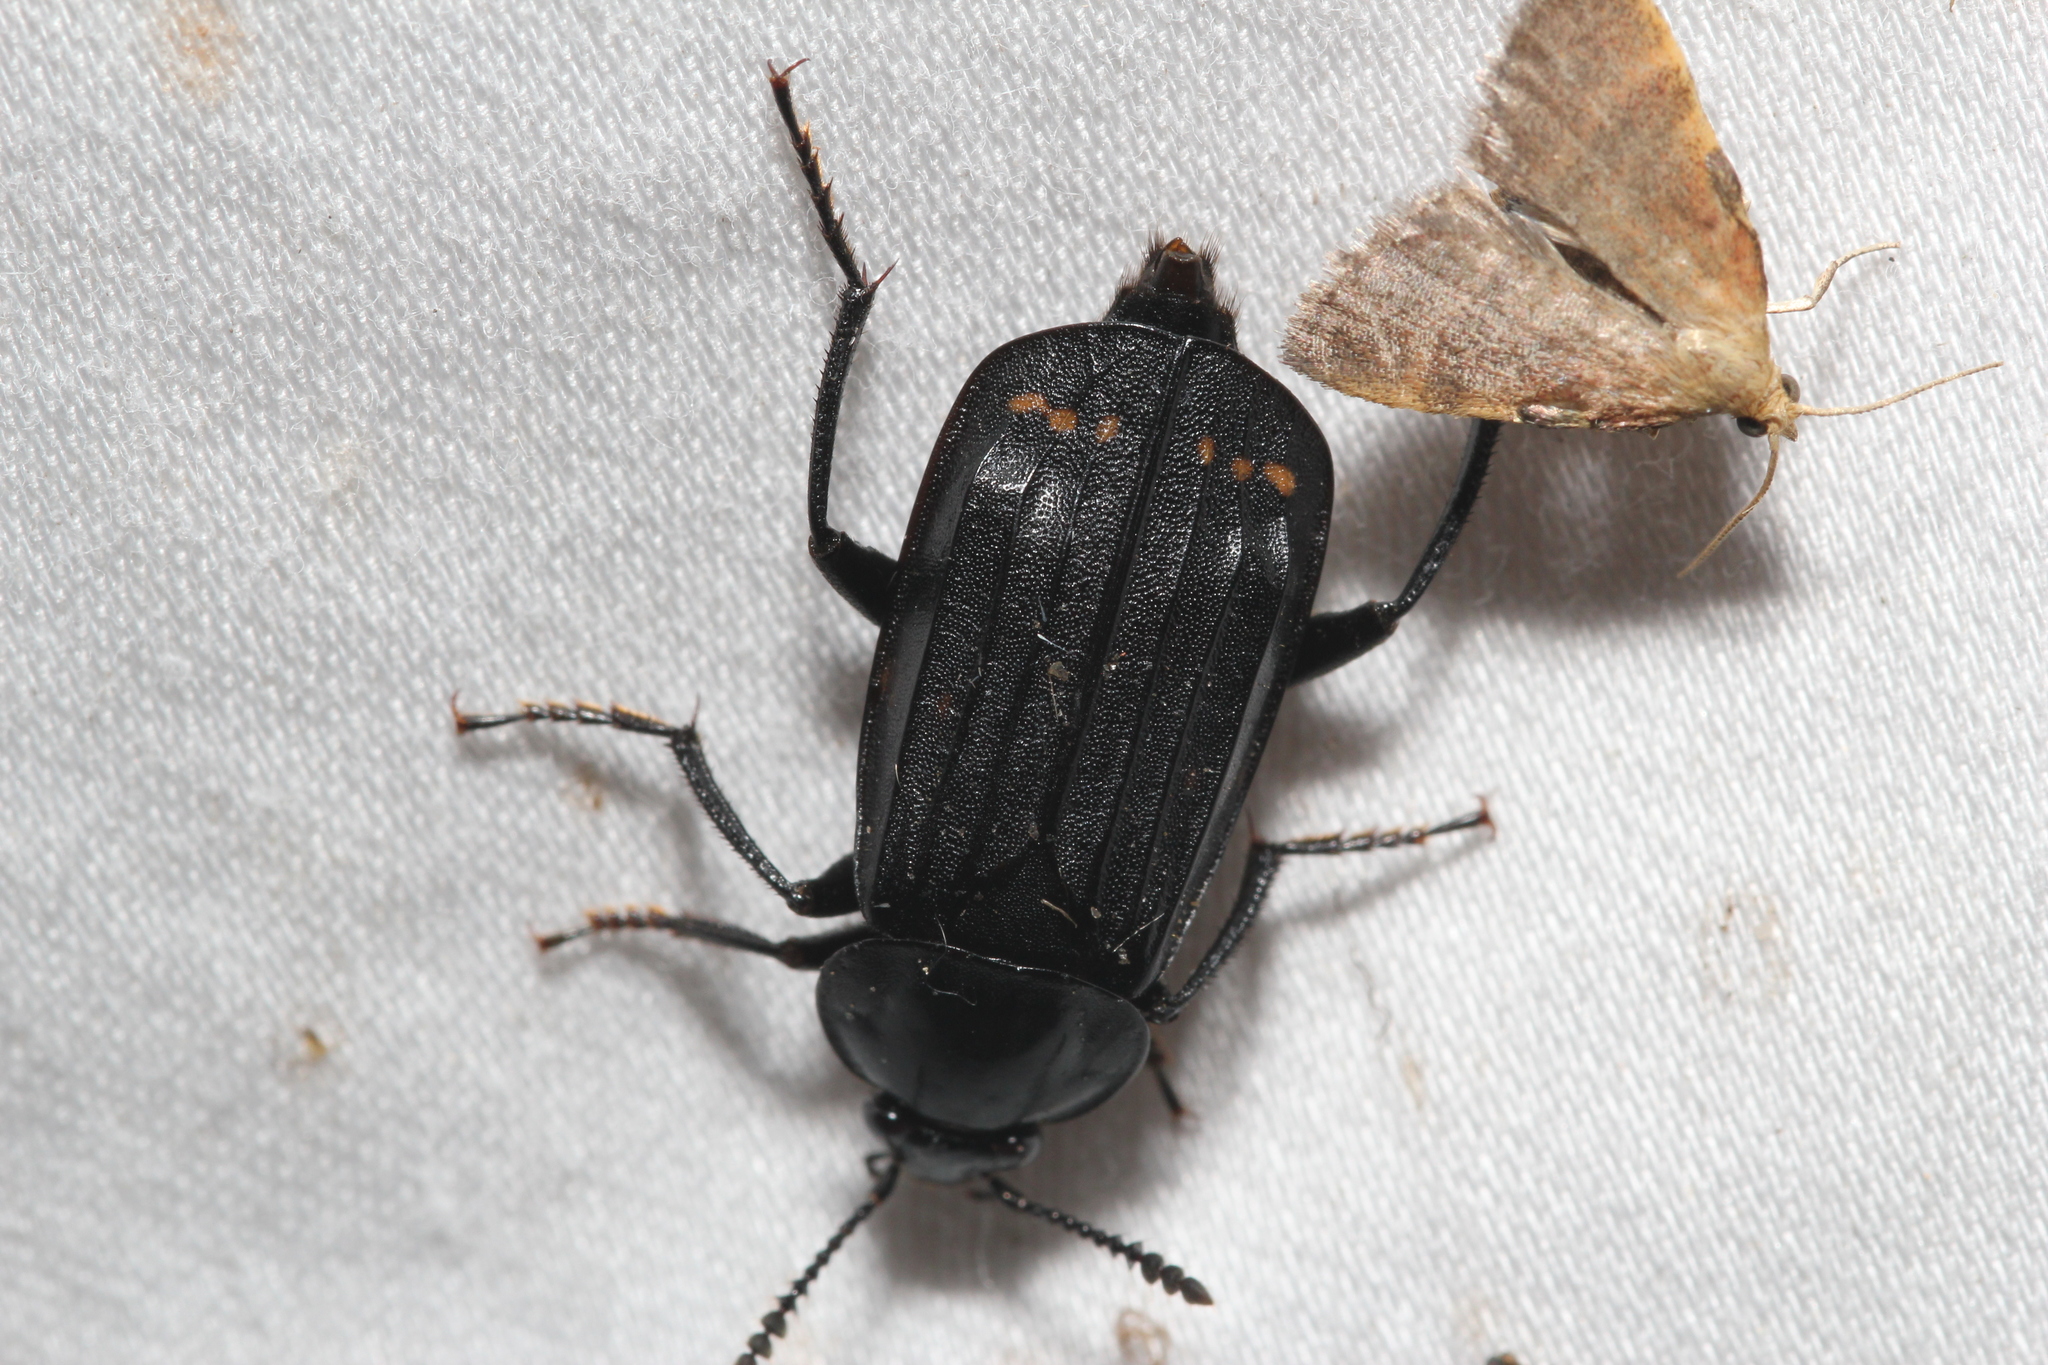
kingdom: Animalia
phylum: Arthropoda
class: Insecta
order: Coleoptera
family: Staphylinidae
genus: Necrodes
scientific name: Necrodes surinamensis
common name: Red-lined carrion beetle
